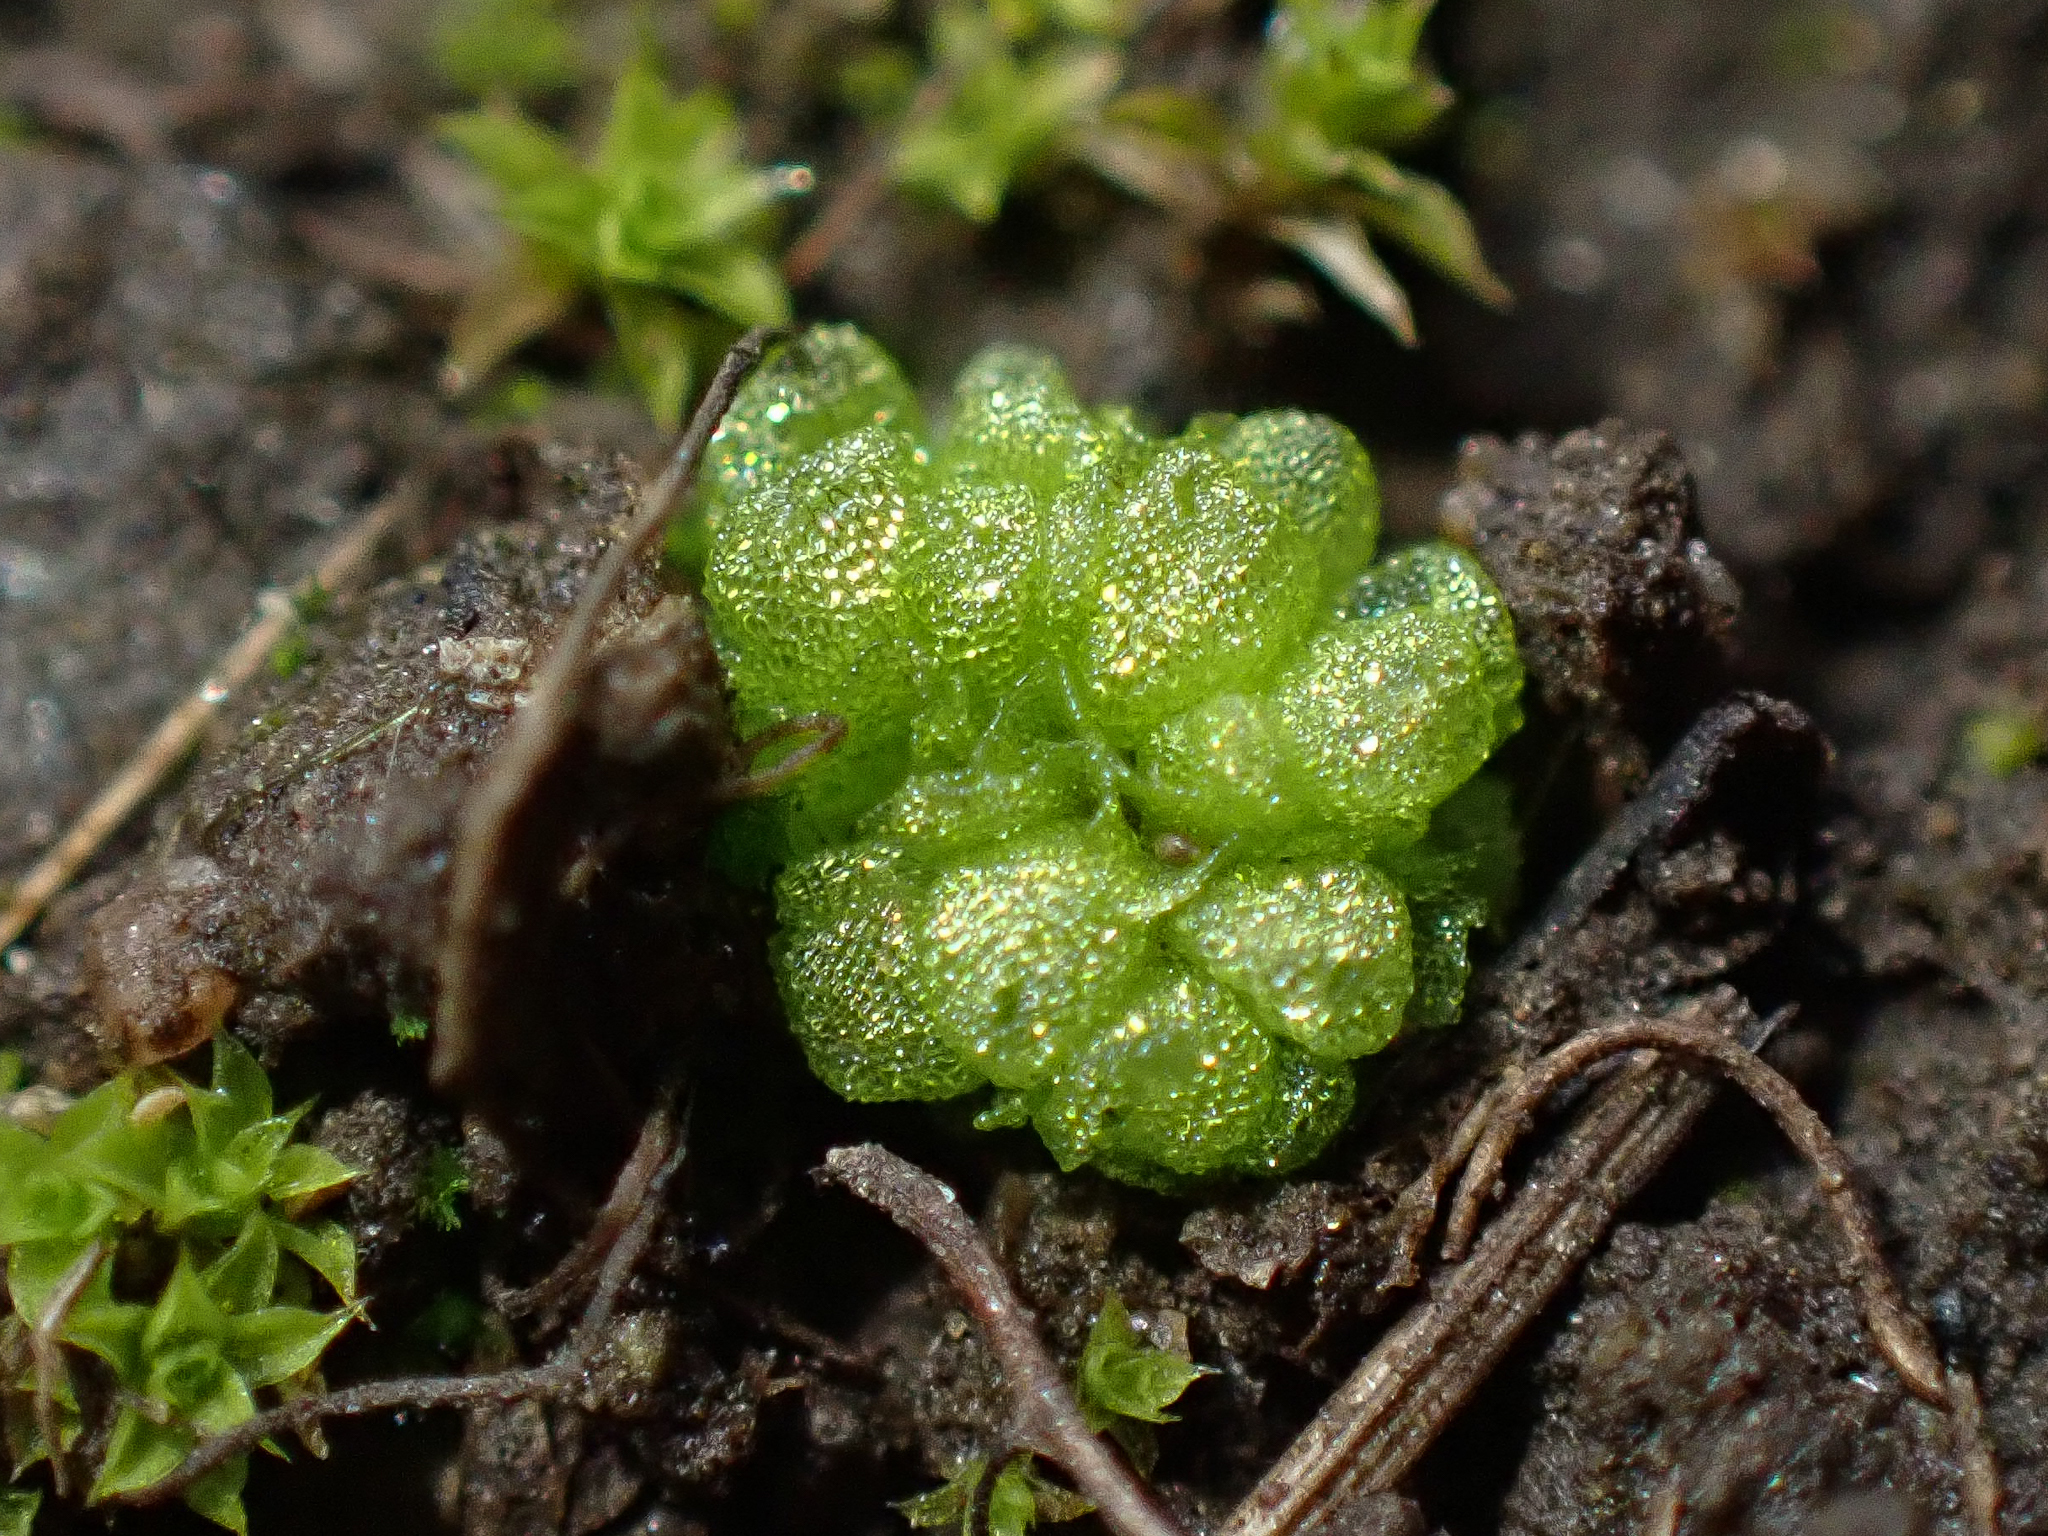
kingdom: Plantae
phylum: Marchantiophyta
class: Marchantiopsida
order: Sphaerocarpales
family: Sphaerocarpaceae
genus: Sphaerocarpos
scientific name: Sphaerocarpos texanus
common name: Texas balloonwort
